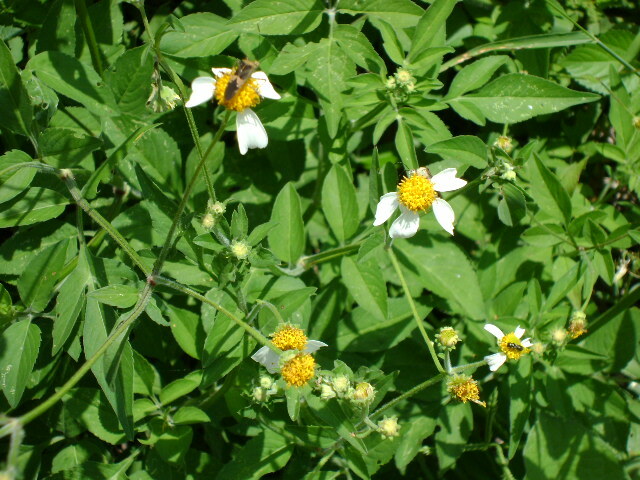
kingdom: Plantae
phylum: Tracheophyta
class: Magnoliopsida
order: Asterales
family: Asteraceae
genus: Bidens
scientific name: Bidens alba
